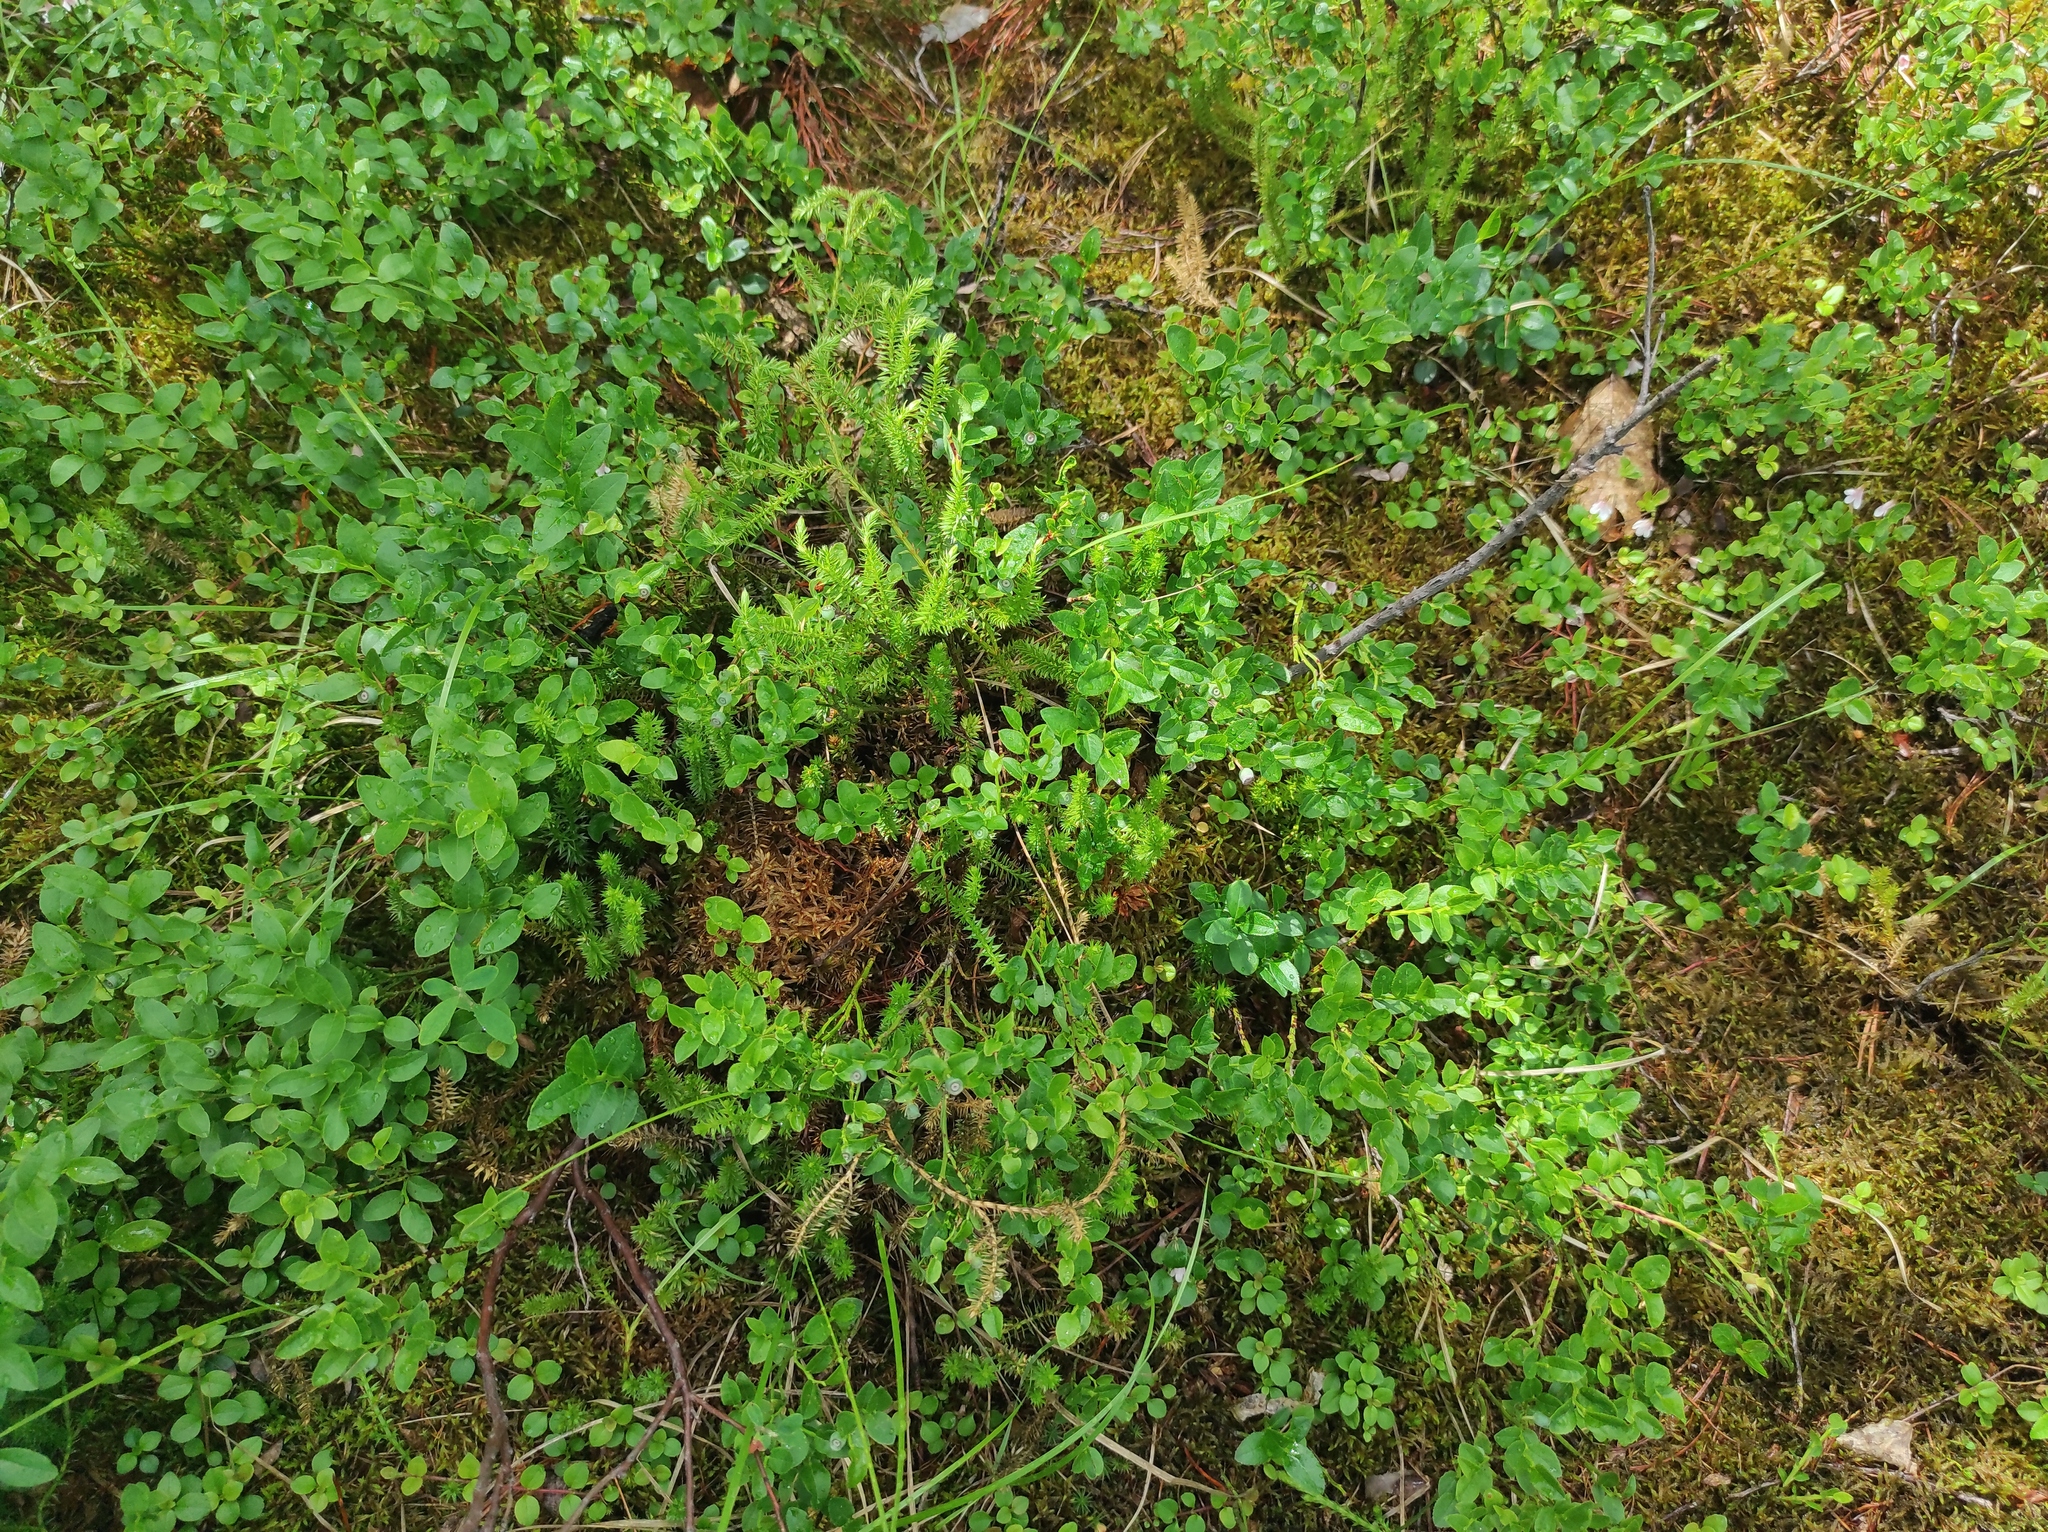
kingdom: Plantae
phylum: Tracheophyta
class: Magnoliopsida
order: Ericales
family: Ericaceae
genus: Vaccinium
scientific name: Vaccinium myrtillus
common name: Bilberry
